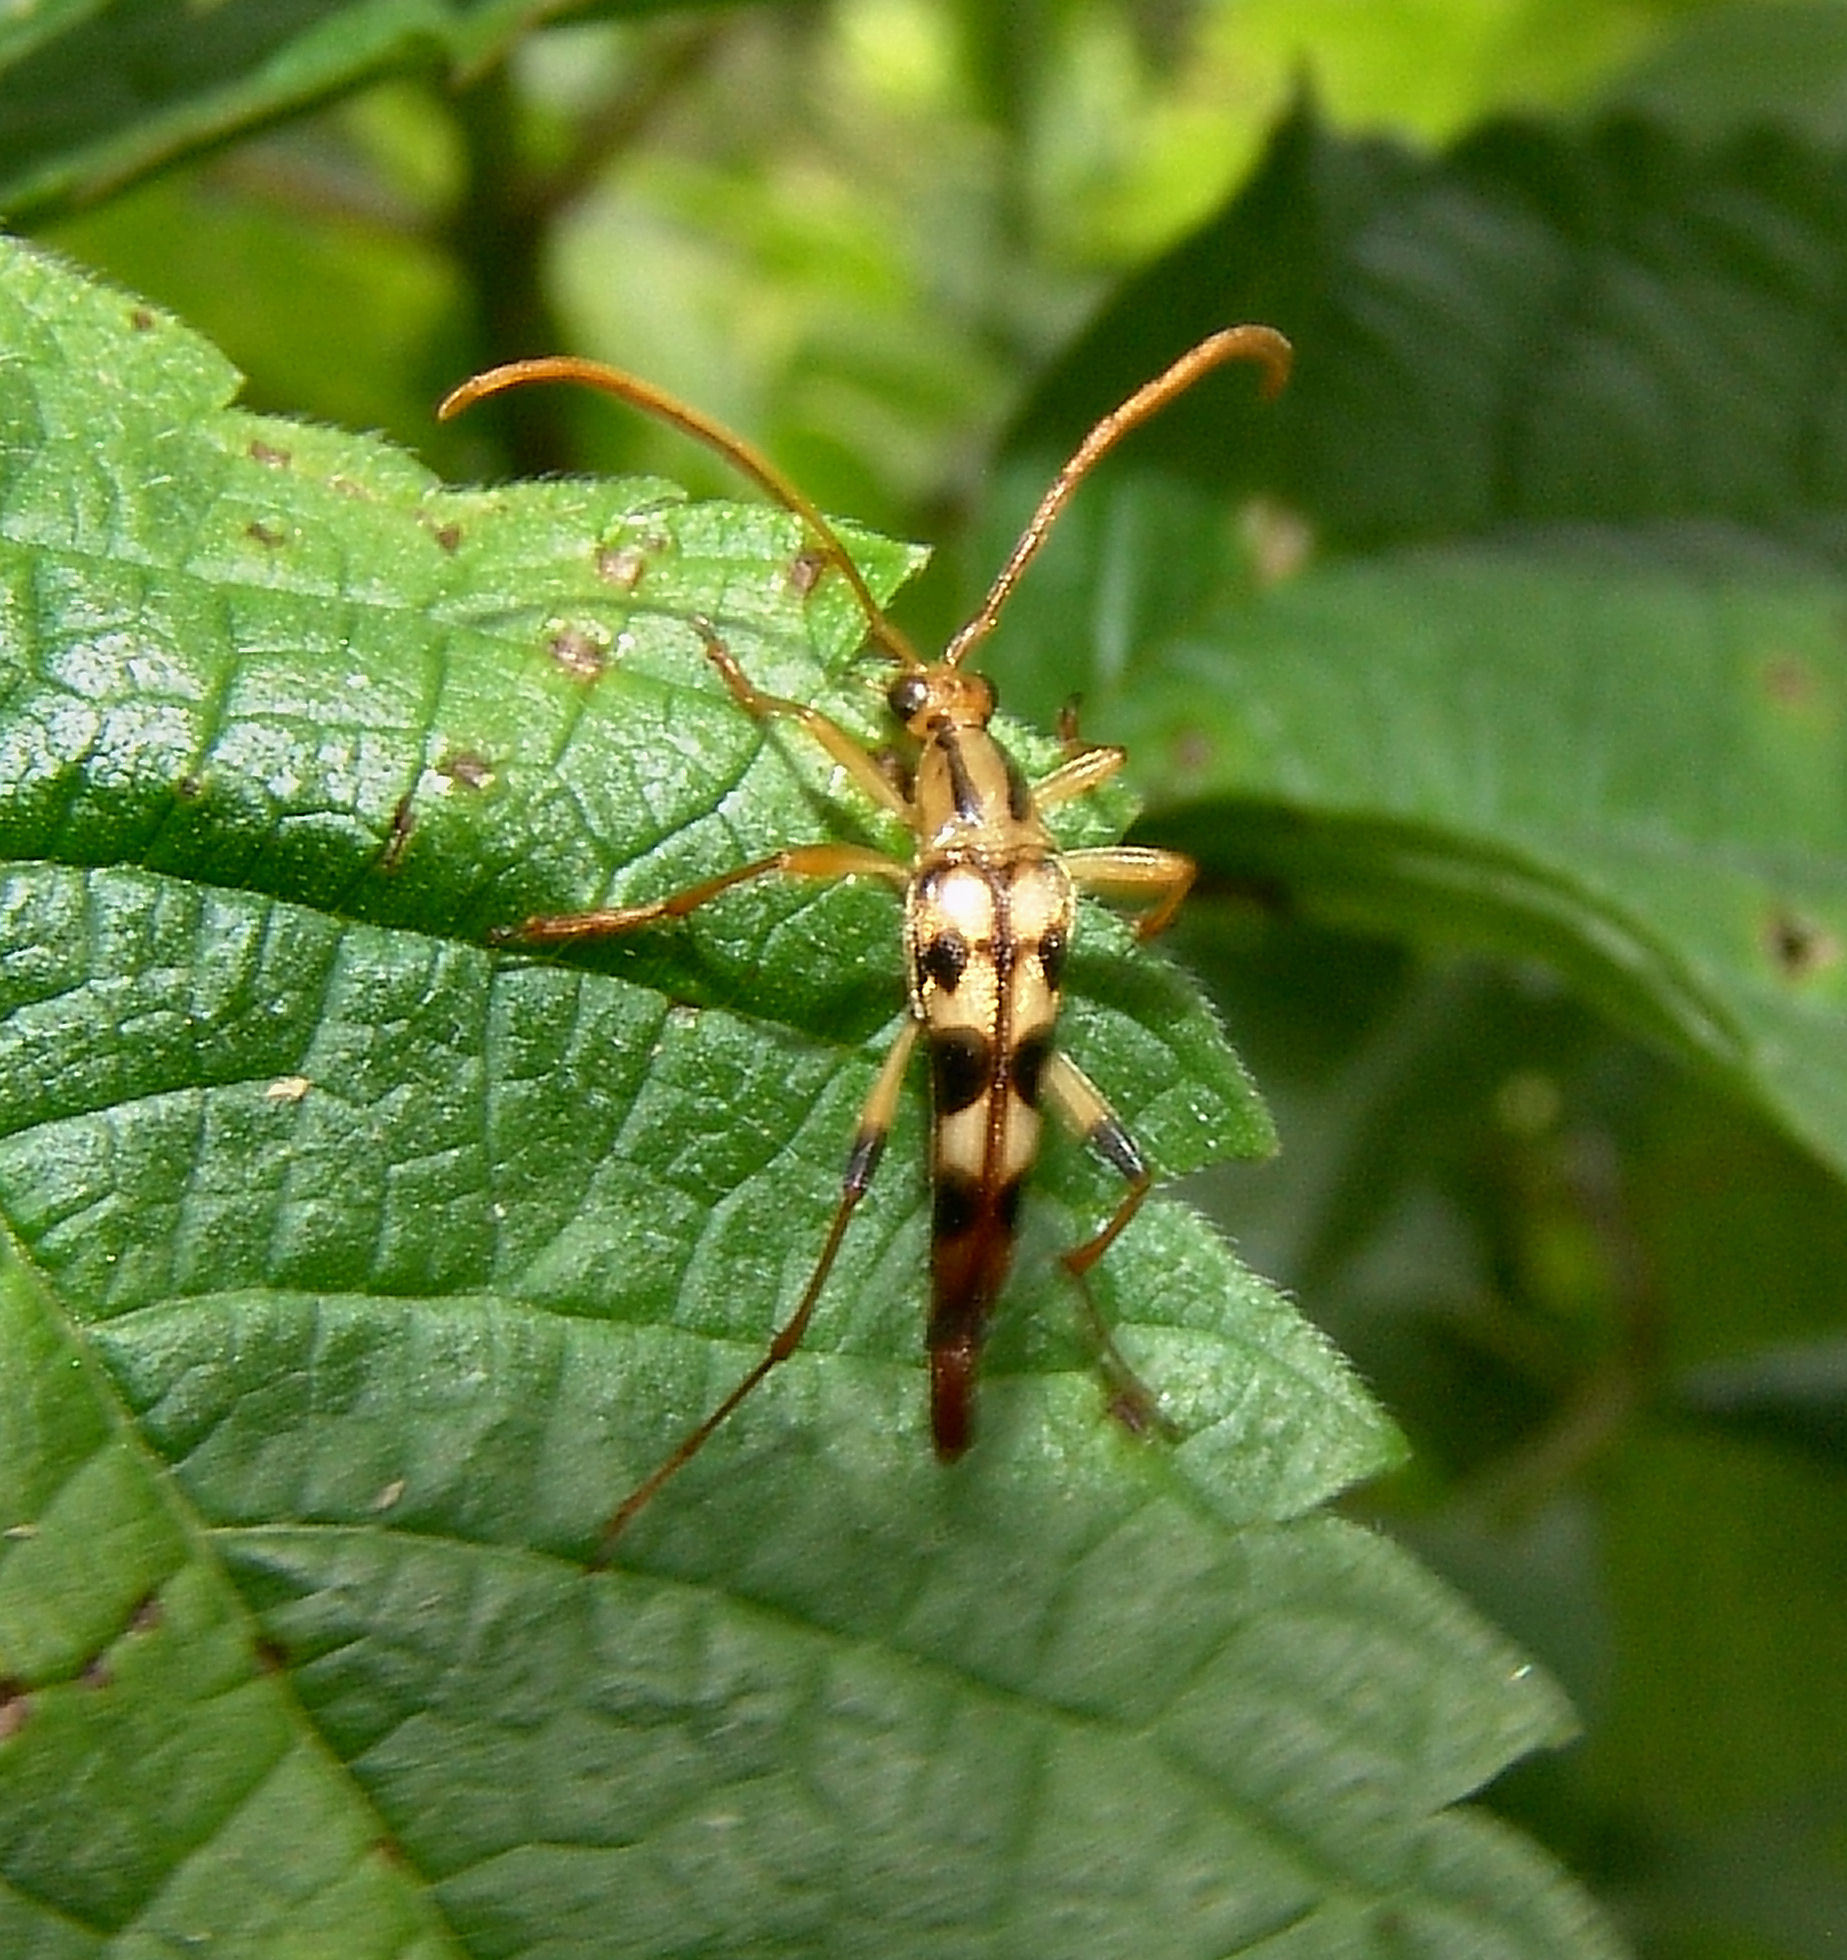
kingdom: Animalia
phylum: Arthropoda
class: Insecta
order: Coleoptera
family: Cerambycidae
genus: Strangalia
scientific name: Strangalia luteicornis
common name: Yellow-horned flower longhorn beetle
